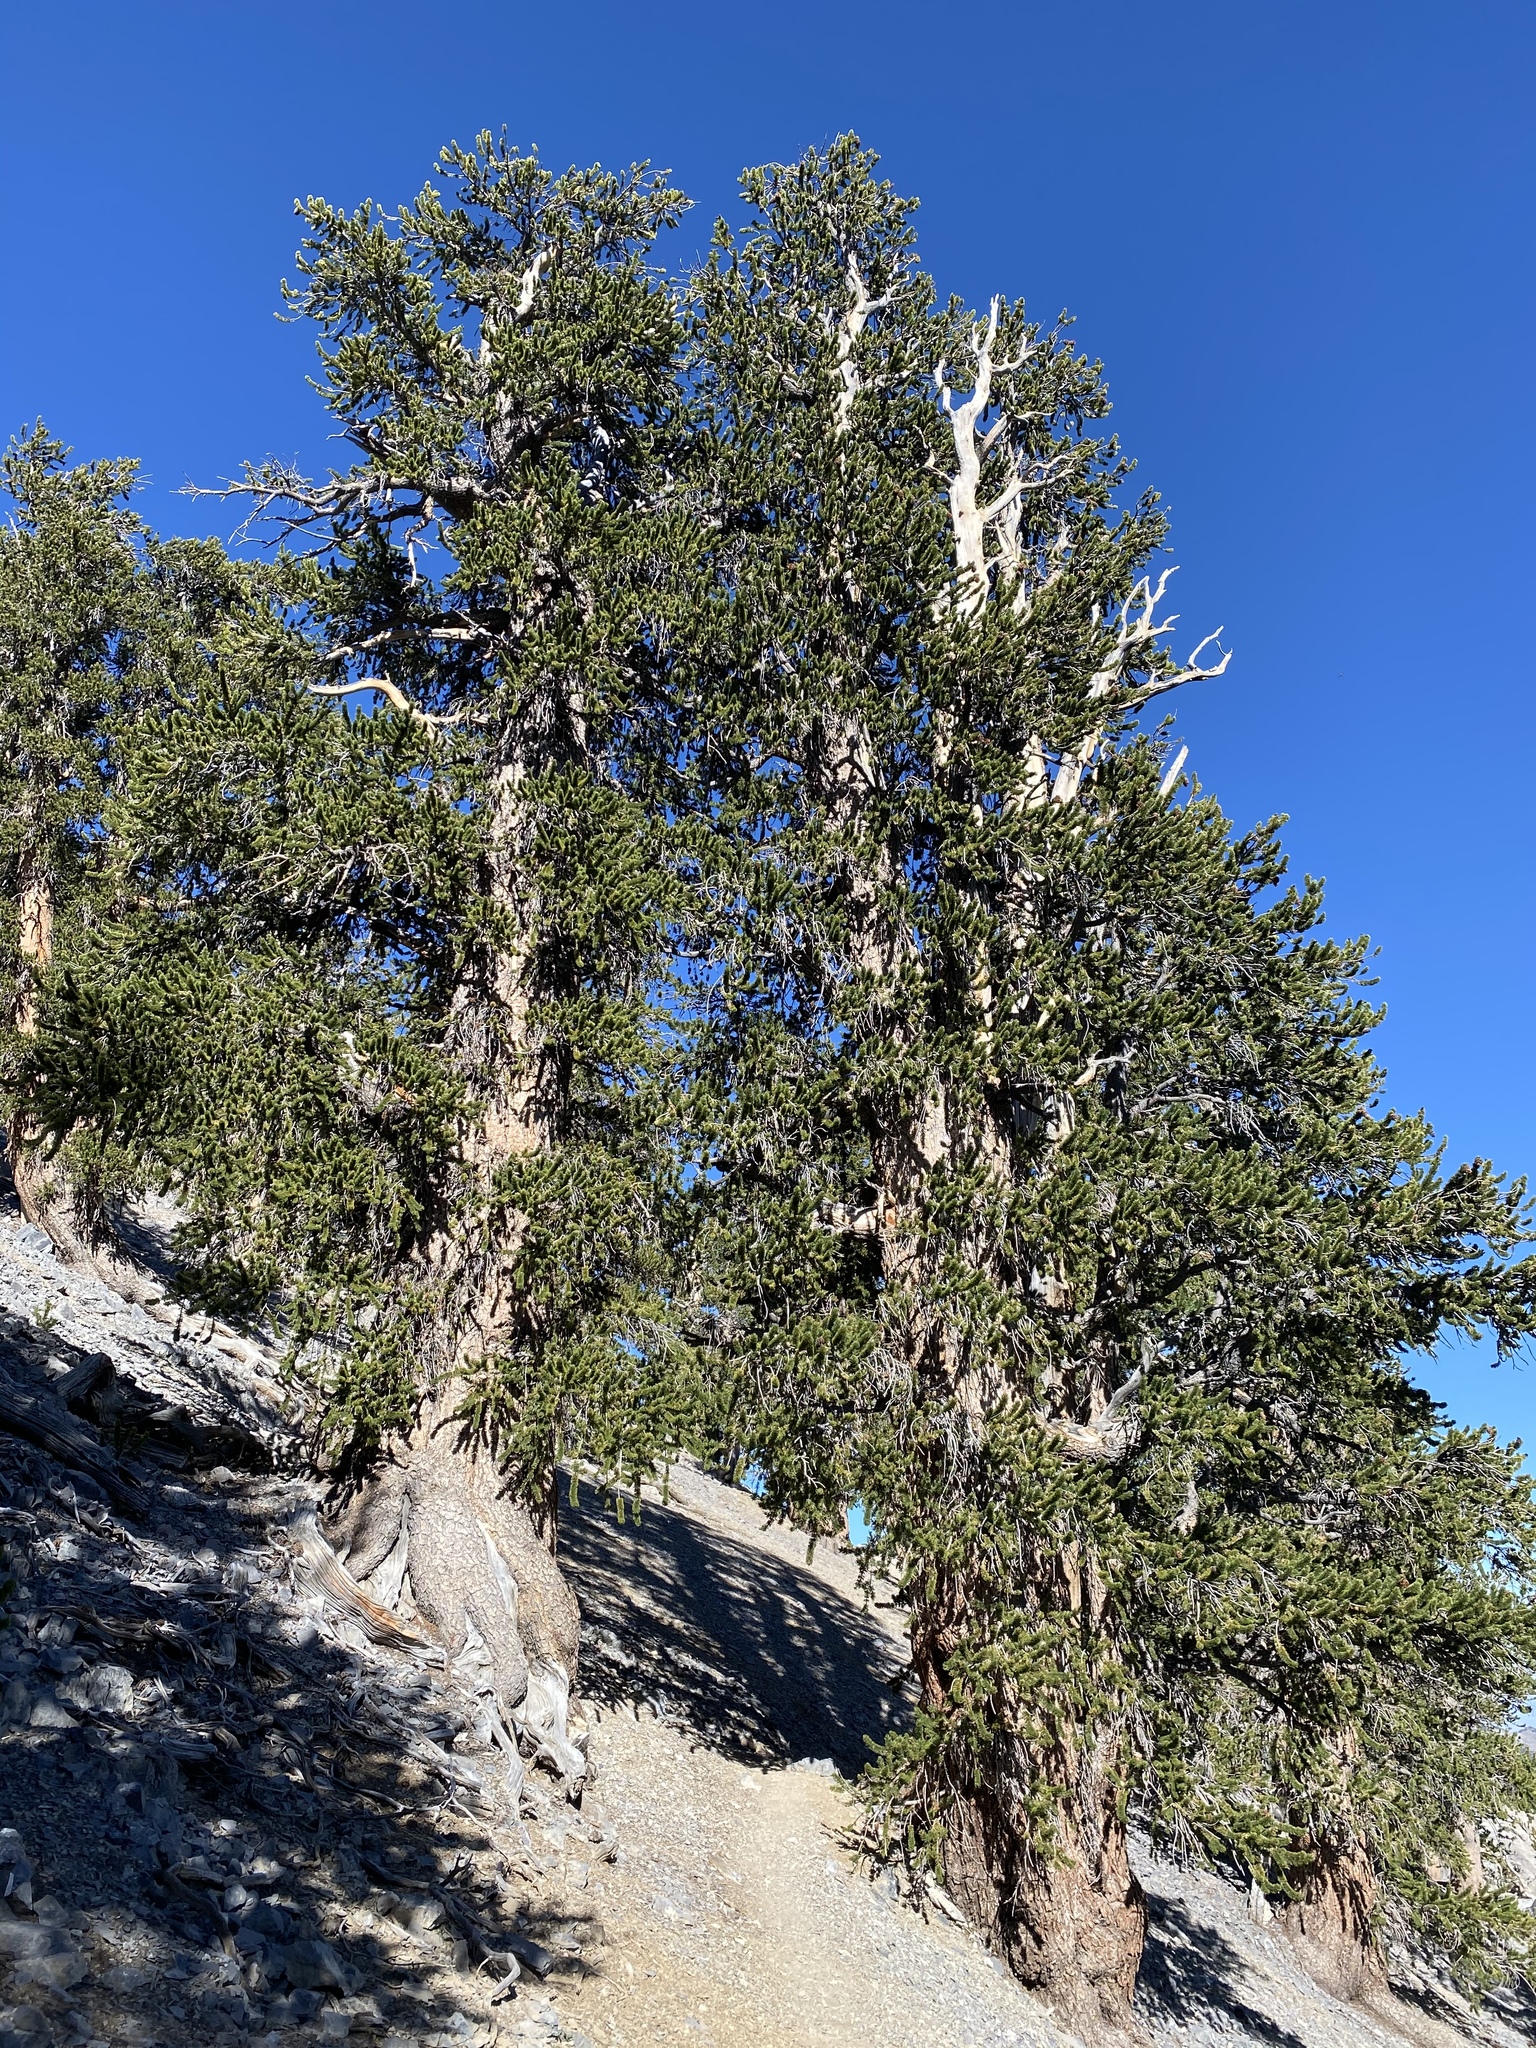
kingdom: Plantae
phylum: Tracheophyta
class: Pinopsida
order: Pinales
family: Pinaceae
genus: Pinus
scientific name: Pinus longaeva
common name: Intermountain bristlecone pine
